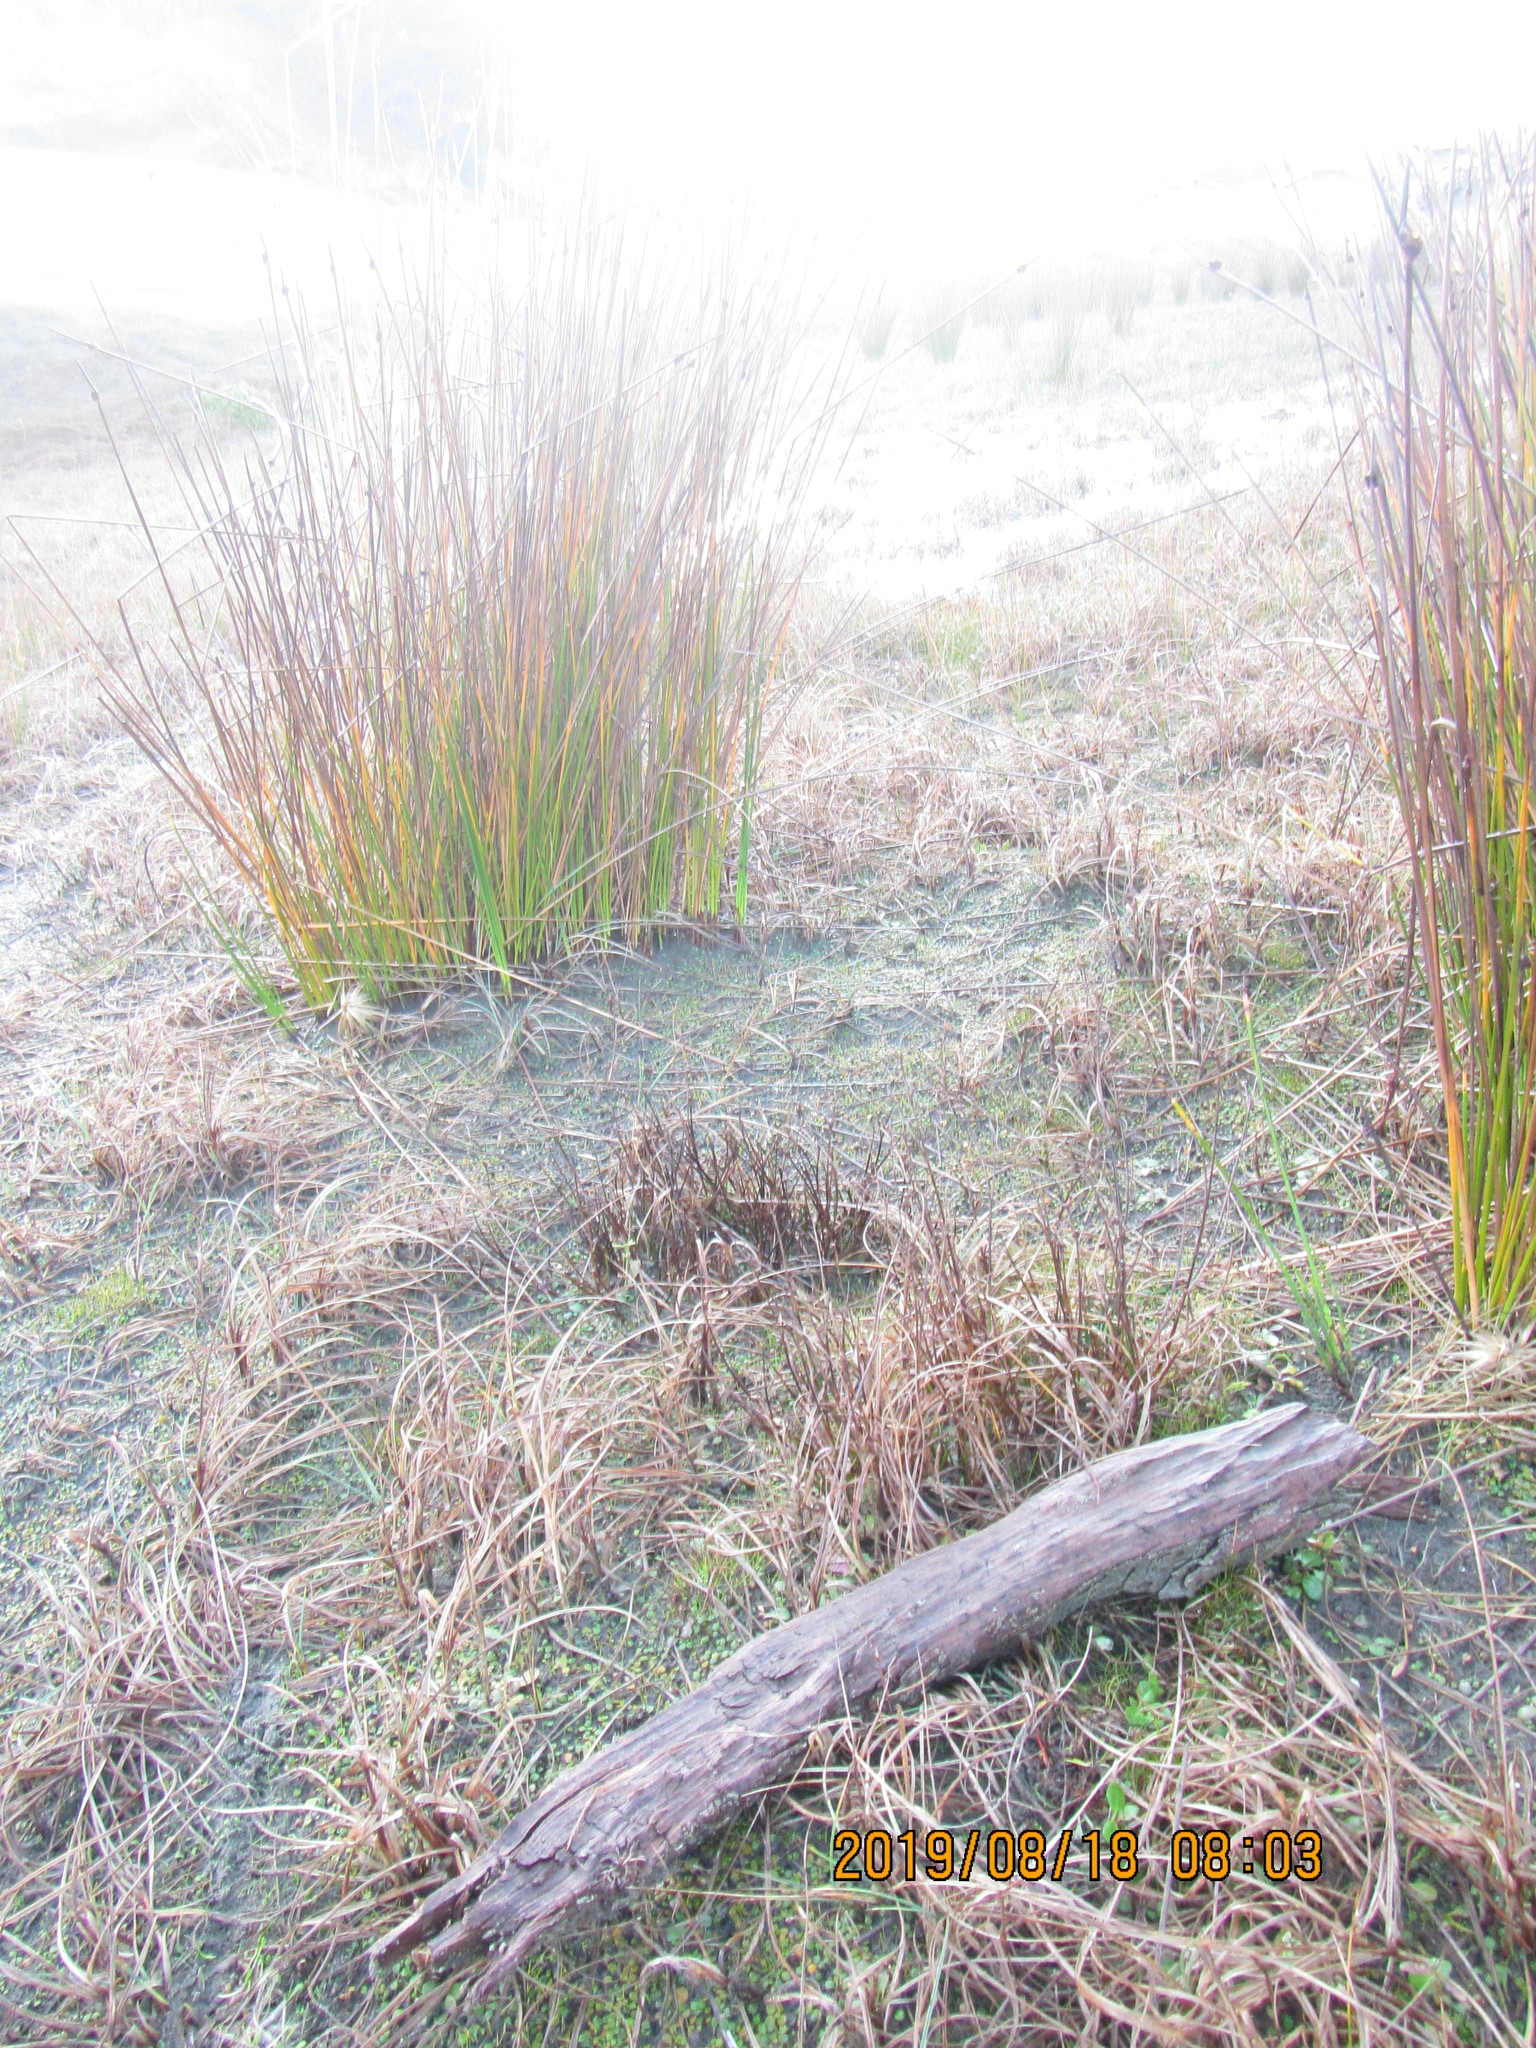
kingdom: Animalia
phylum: Arthropoda
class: Insecta
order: Coleoptera
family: Coccinellidae
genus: Coccinella
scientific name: Coccinella undecimpunctata
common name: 11-spot ladybird
